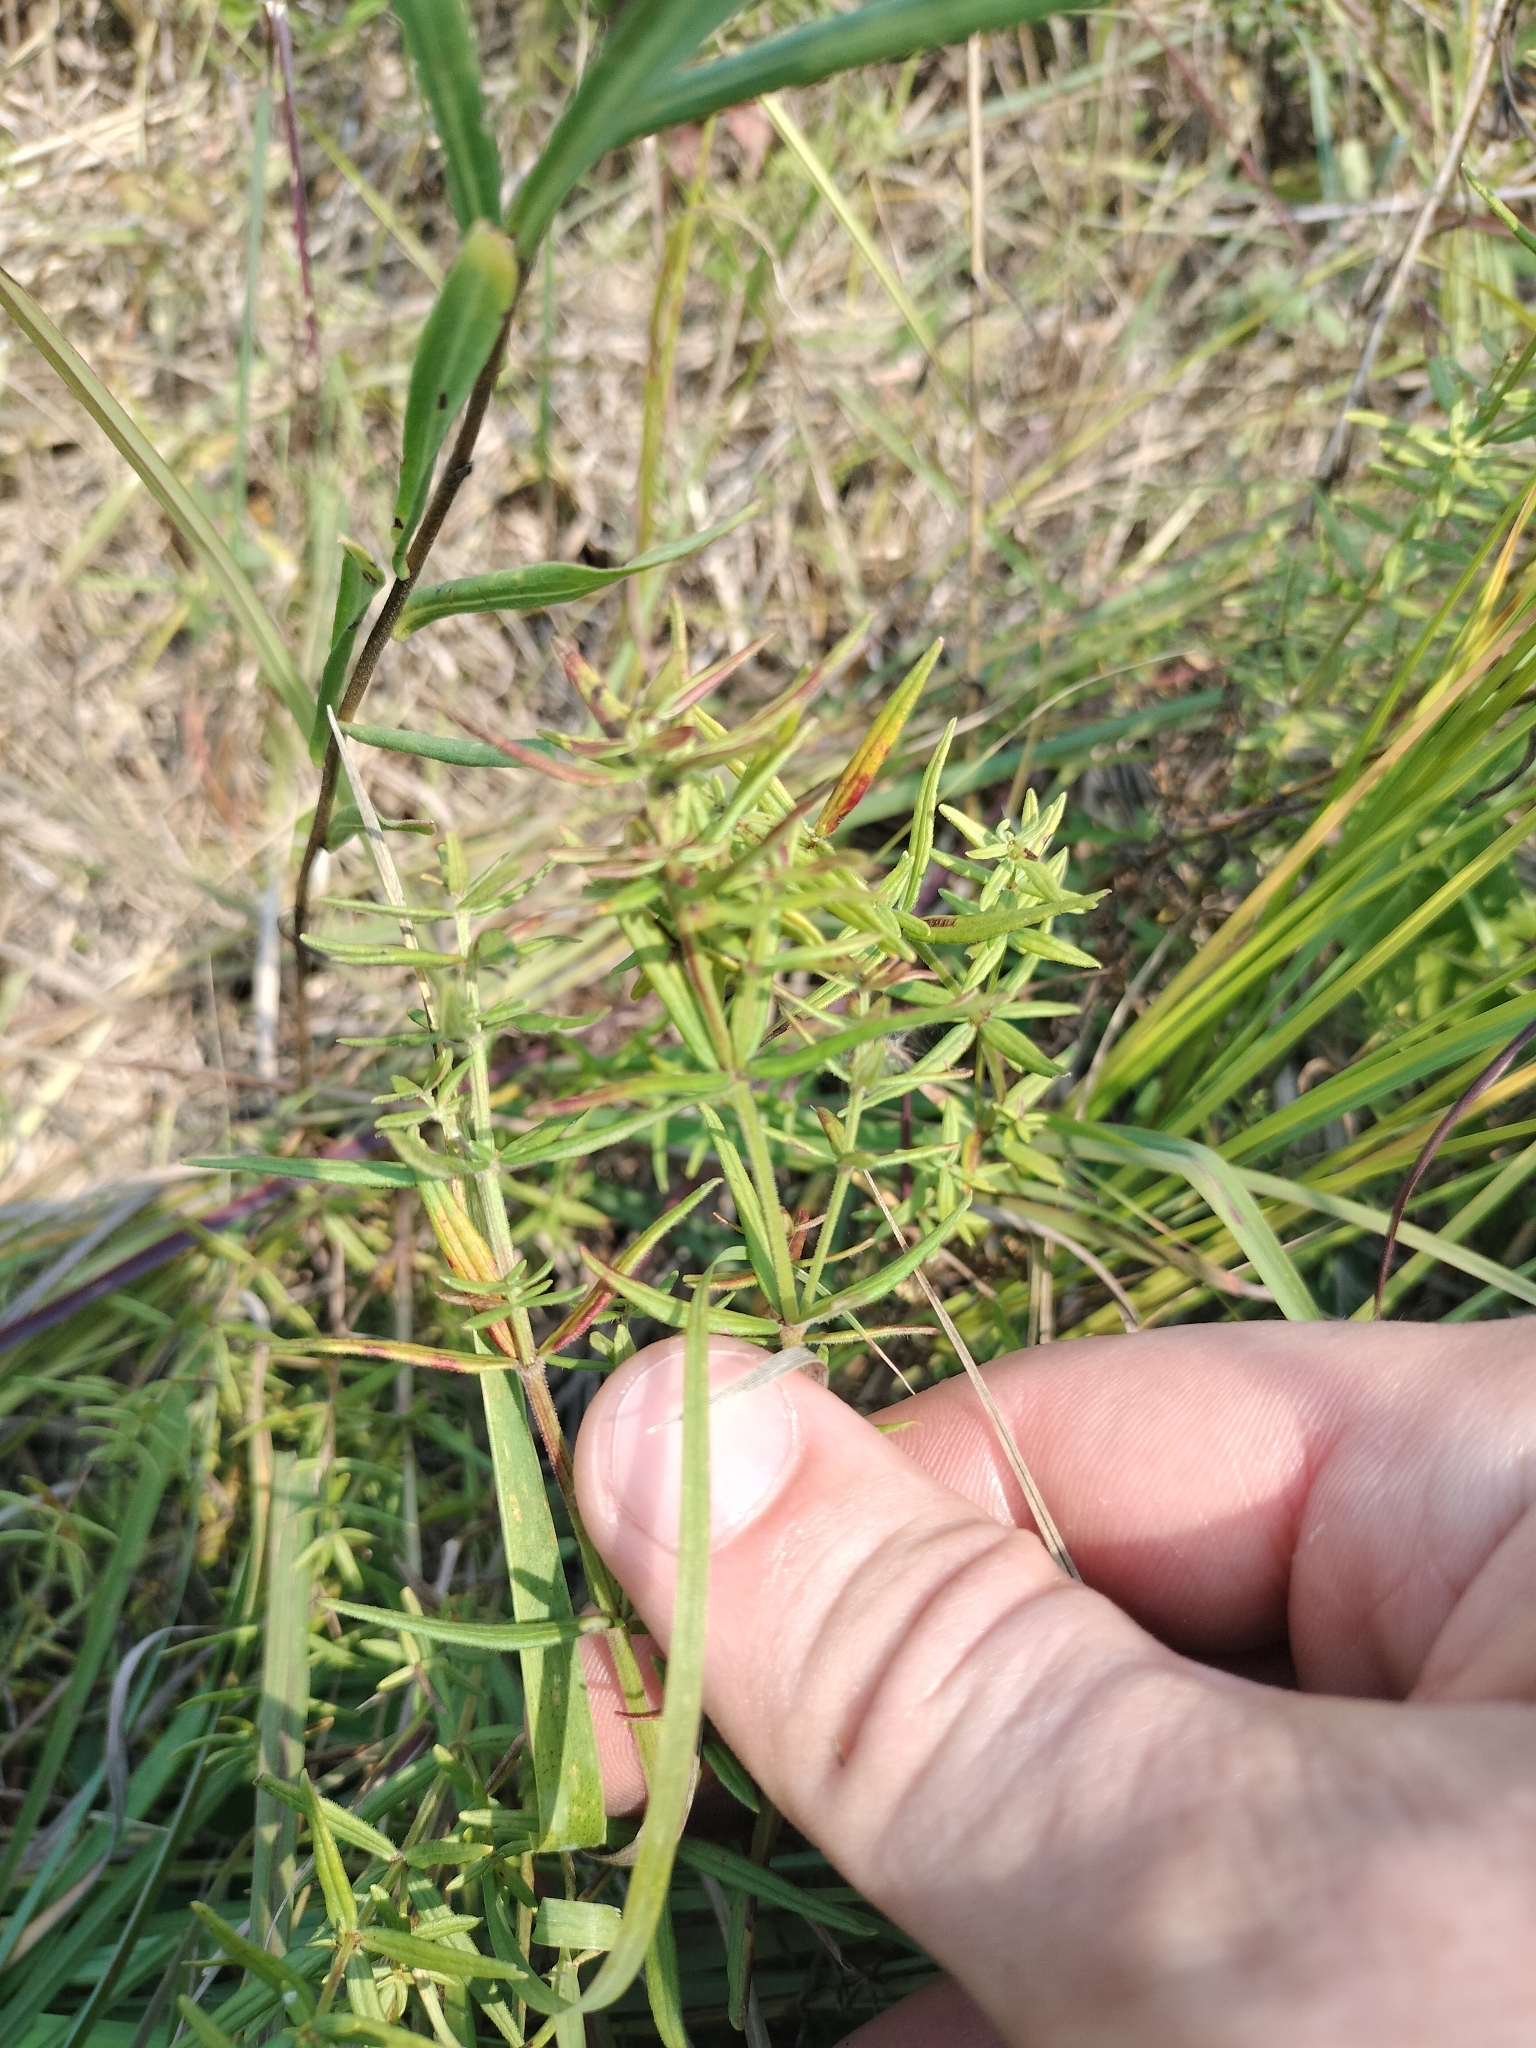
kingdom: Plantae
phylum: Tracheophyta
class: Magnoliopsida
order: Asterales
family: Asteraceae
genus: Liatris
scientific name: Liatris pycnostachya
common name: Cattail gayfeather
